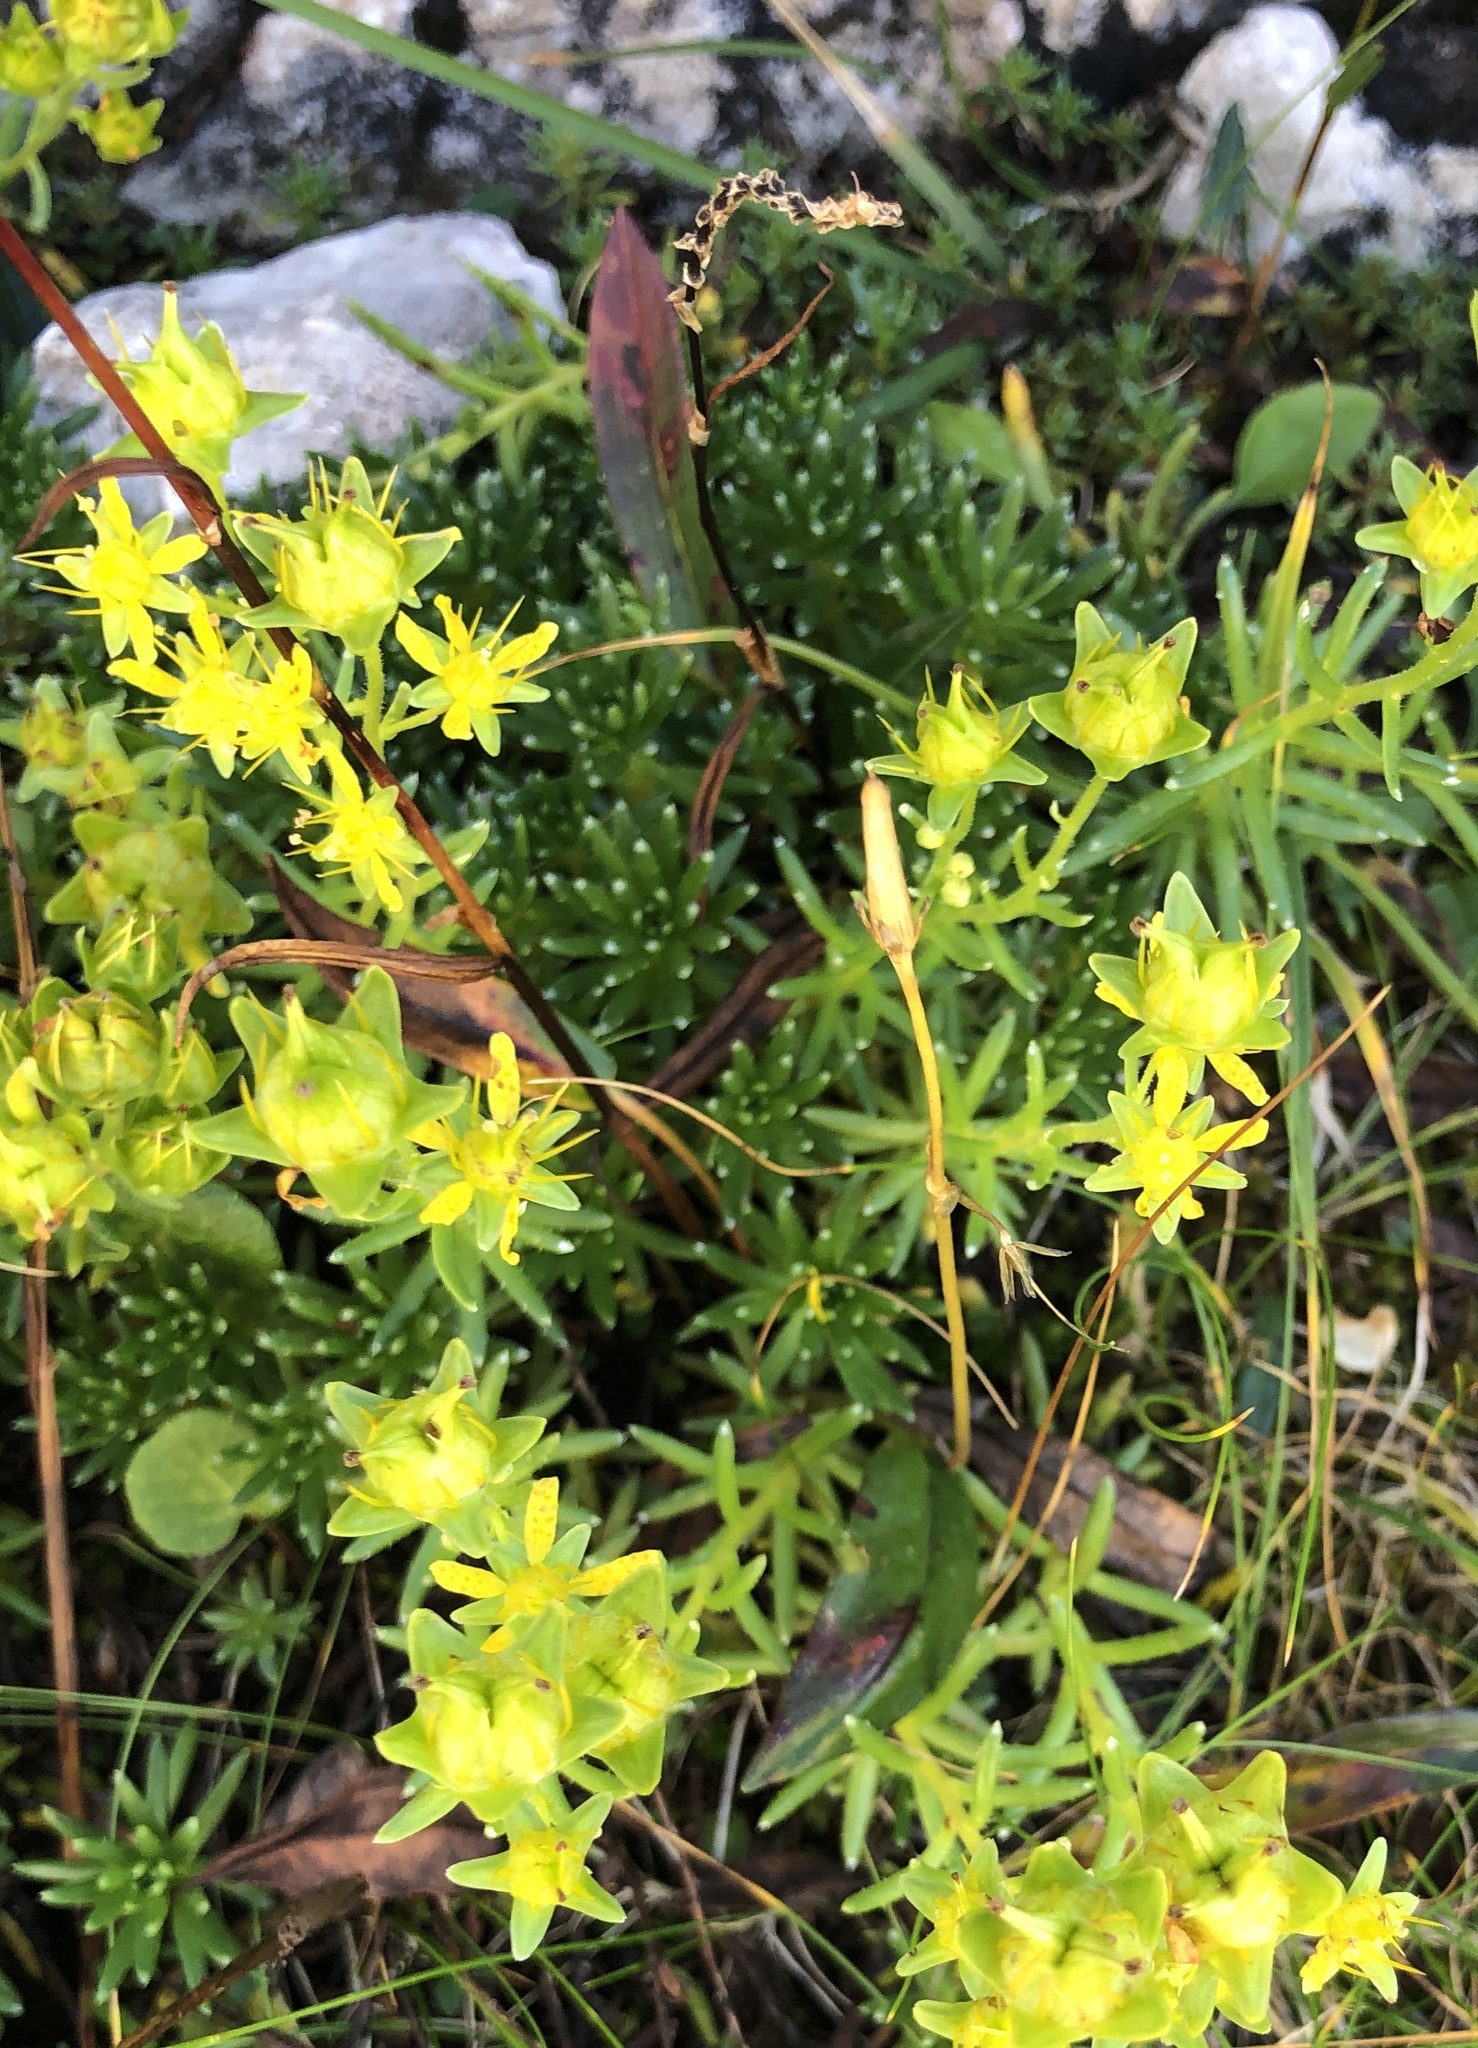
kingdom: Plantae
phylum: Tracheophyta
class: Magnoliopsida
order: Saxifragales
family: Saxifragaceae
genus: Saxifraga
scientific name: Saxifraga aizoides
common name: Yellow mountain saxifrage
